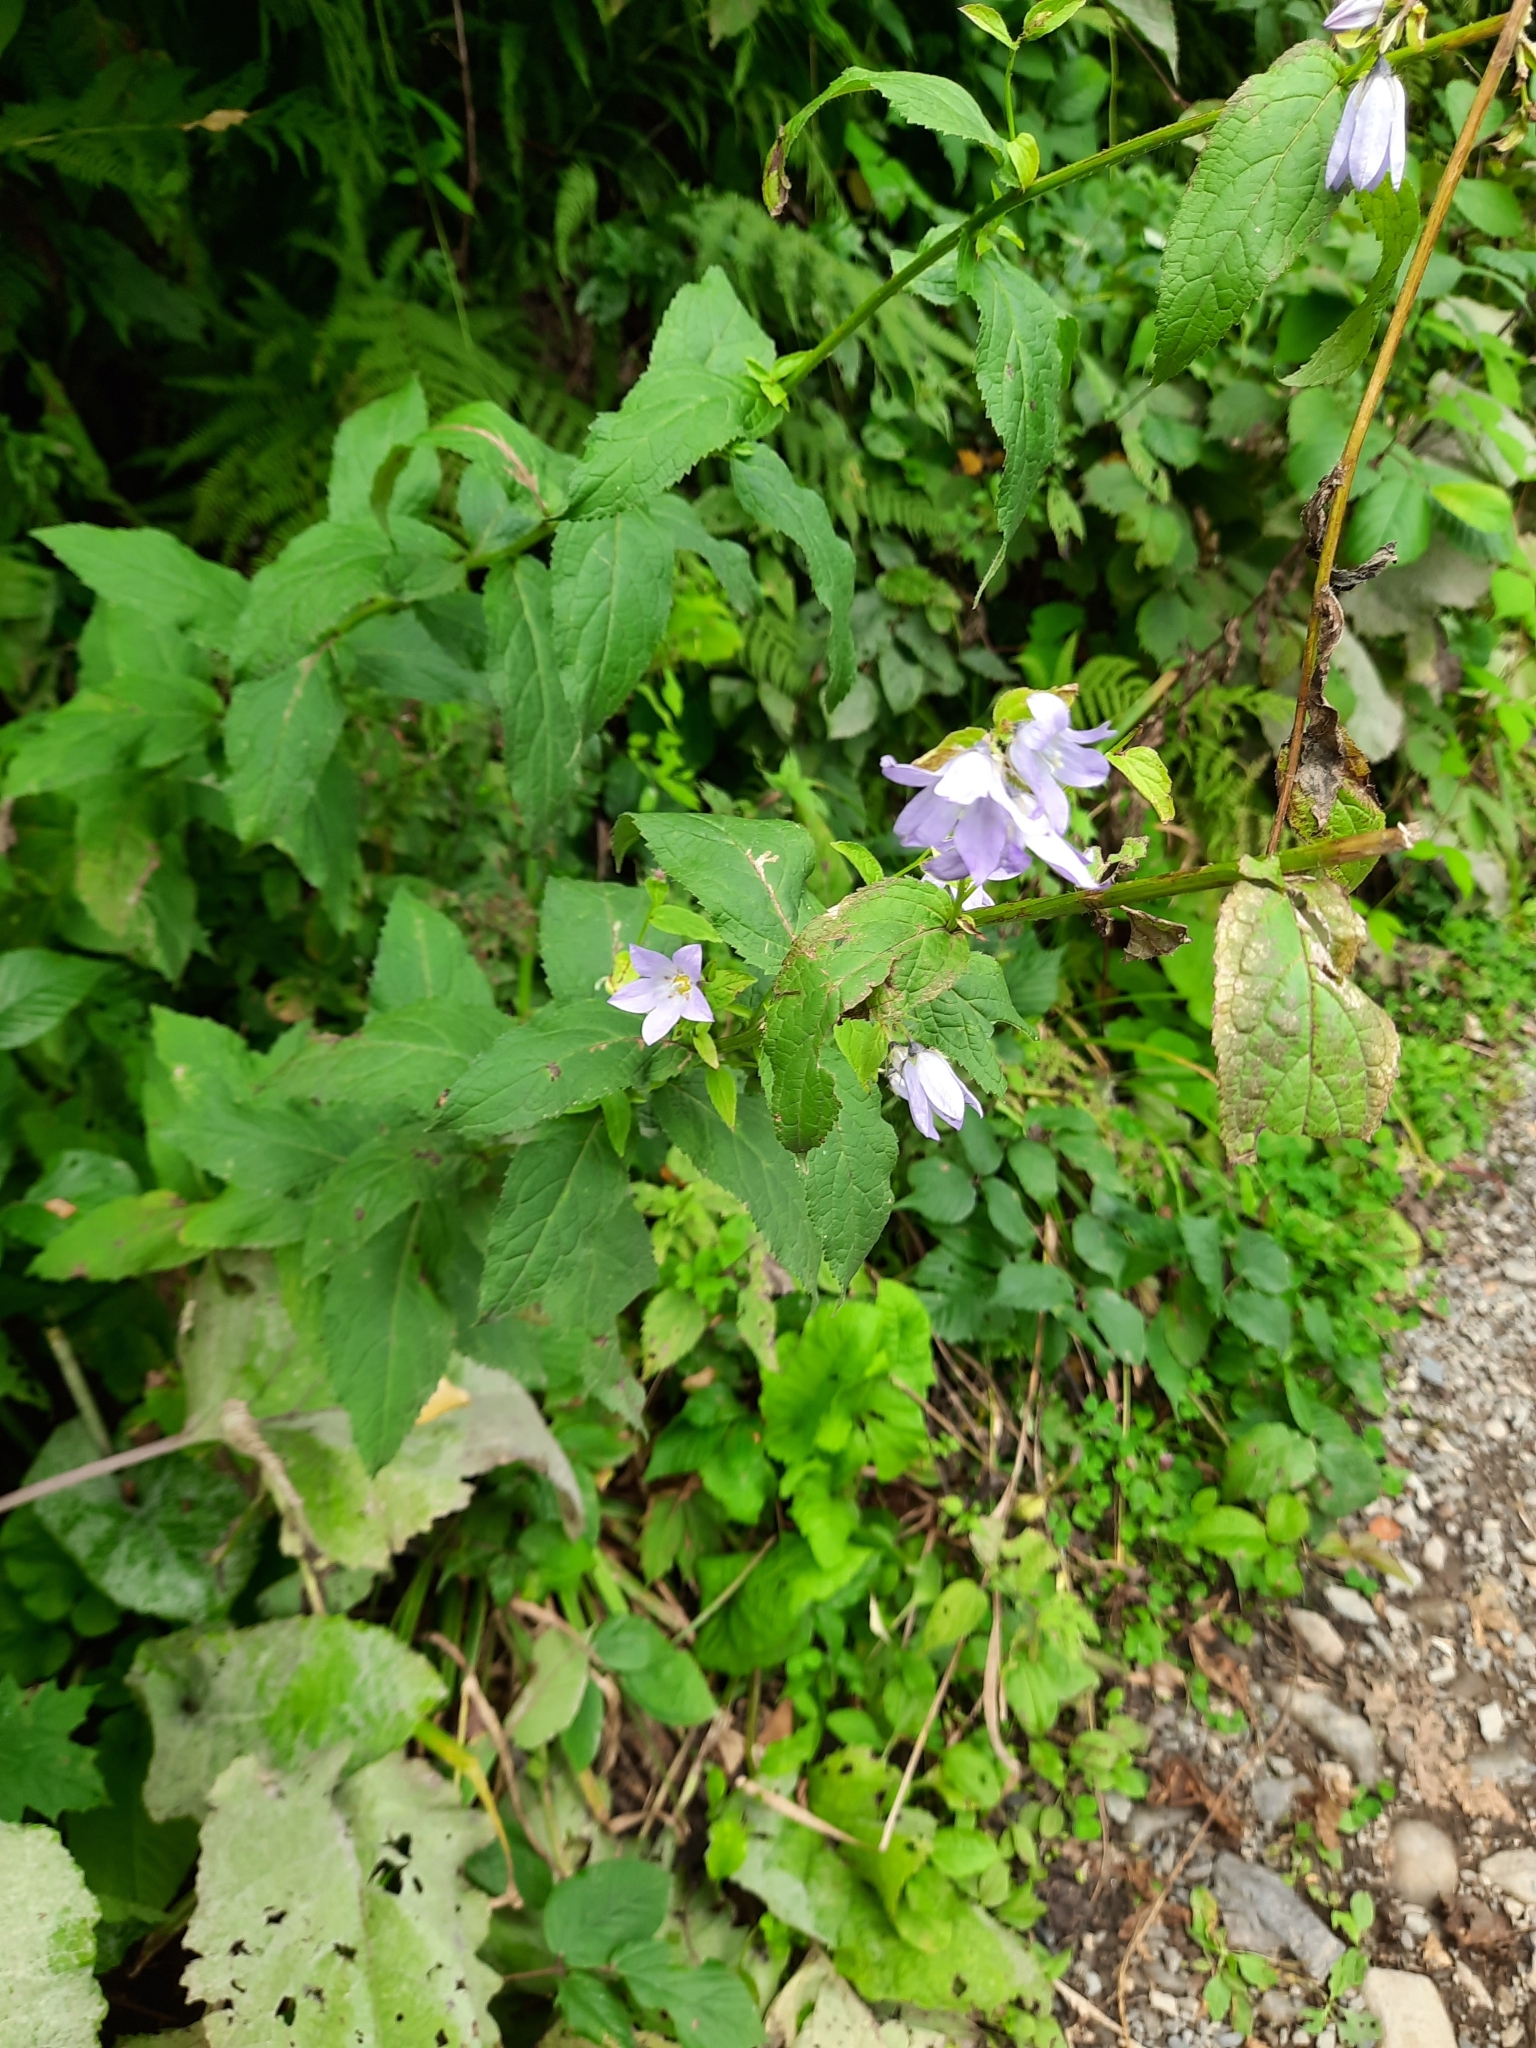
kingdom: Plantae
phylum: Tracheophyta
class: Magnoliopsida
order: Asterales
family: Campanulaceae
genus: Campanula
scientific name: Campanula lactiflora
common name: Milky bellflower
